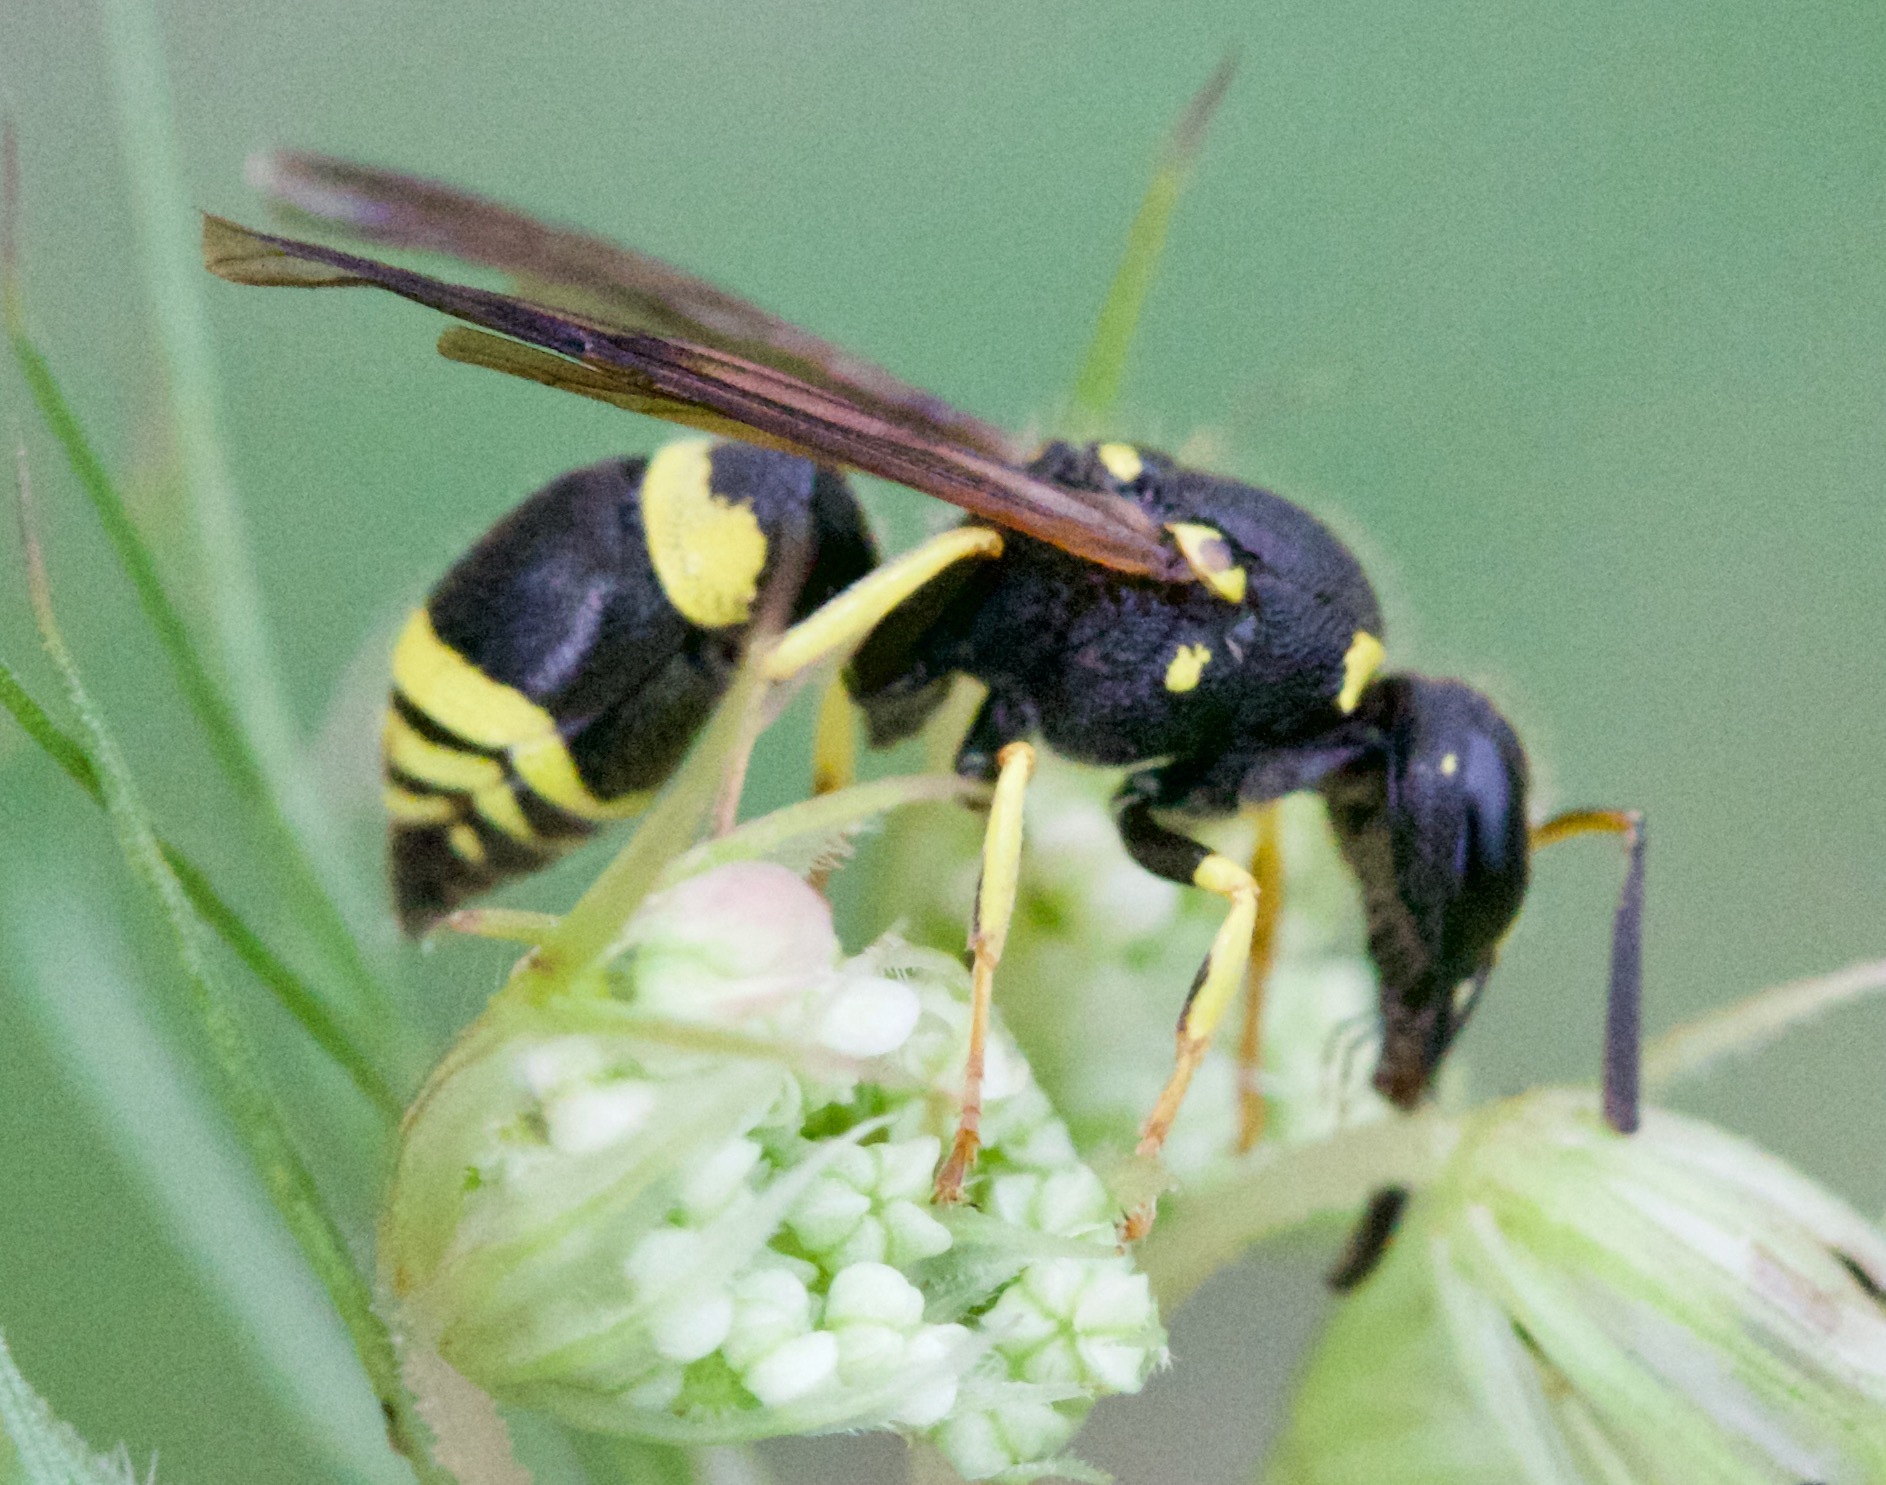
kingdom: Animalia
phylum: Arthropoda
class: Insecta
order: Hymenoptera
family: Vespidae
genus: Ancistrocerus
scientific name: Ancistrocerus
